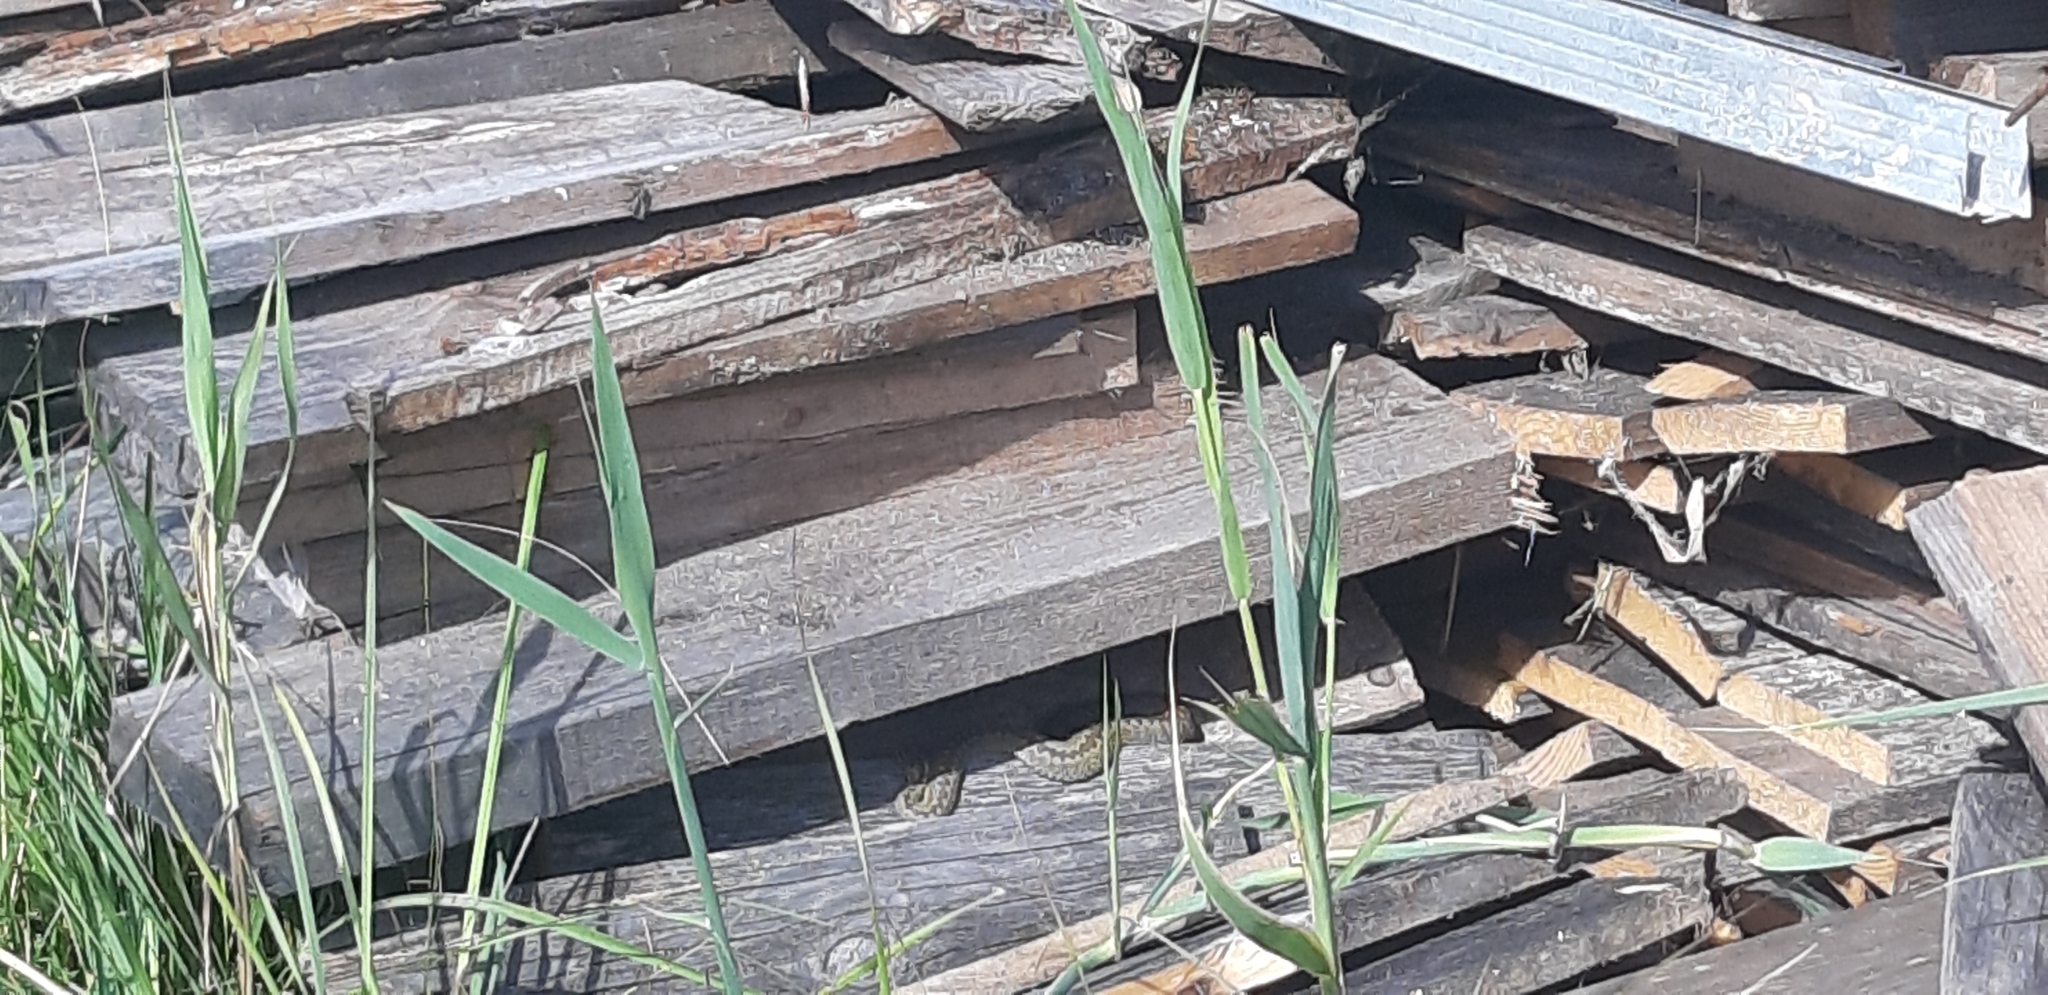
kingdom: Animalia
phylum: Chordata
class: Squamata
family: Viperidae
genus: Vipera
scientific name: Vipera berus
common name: Adder
